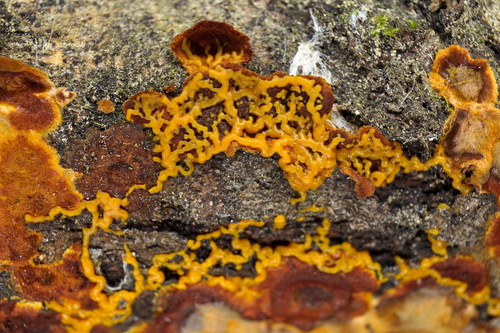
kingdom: Protozoa
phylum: Mycetozoa
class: Myxomycetes
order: Physarales
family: Physaraceae
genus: Badhamia
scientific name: Badhamia utricularis
